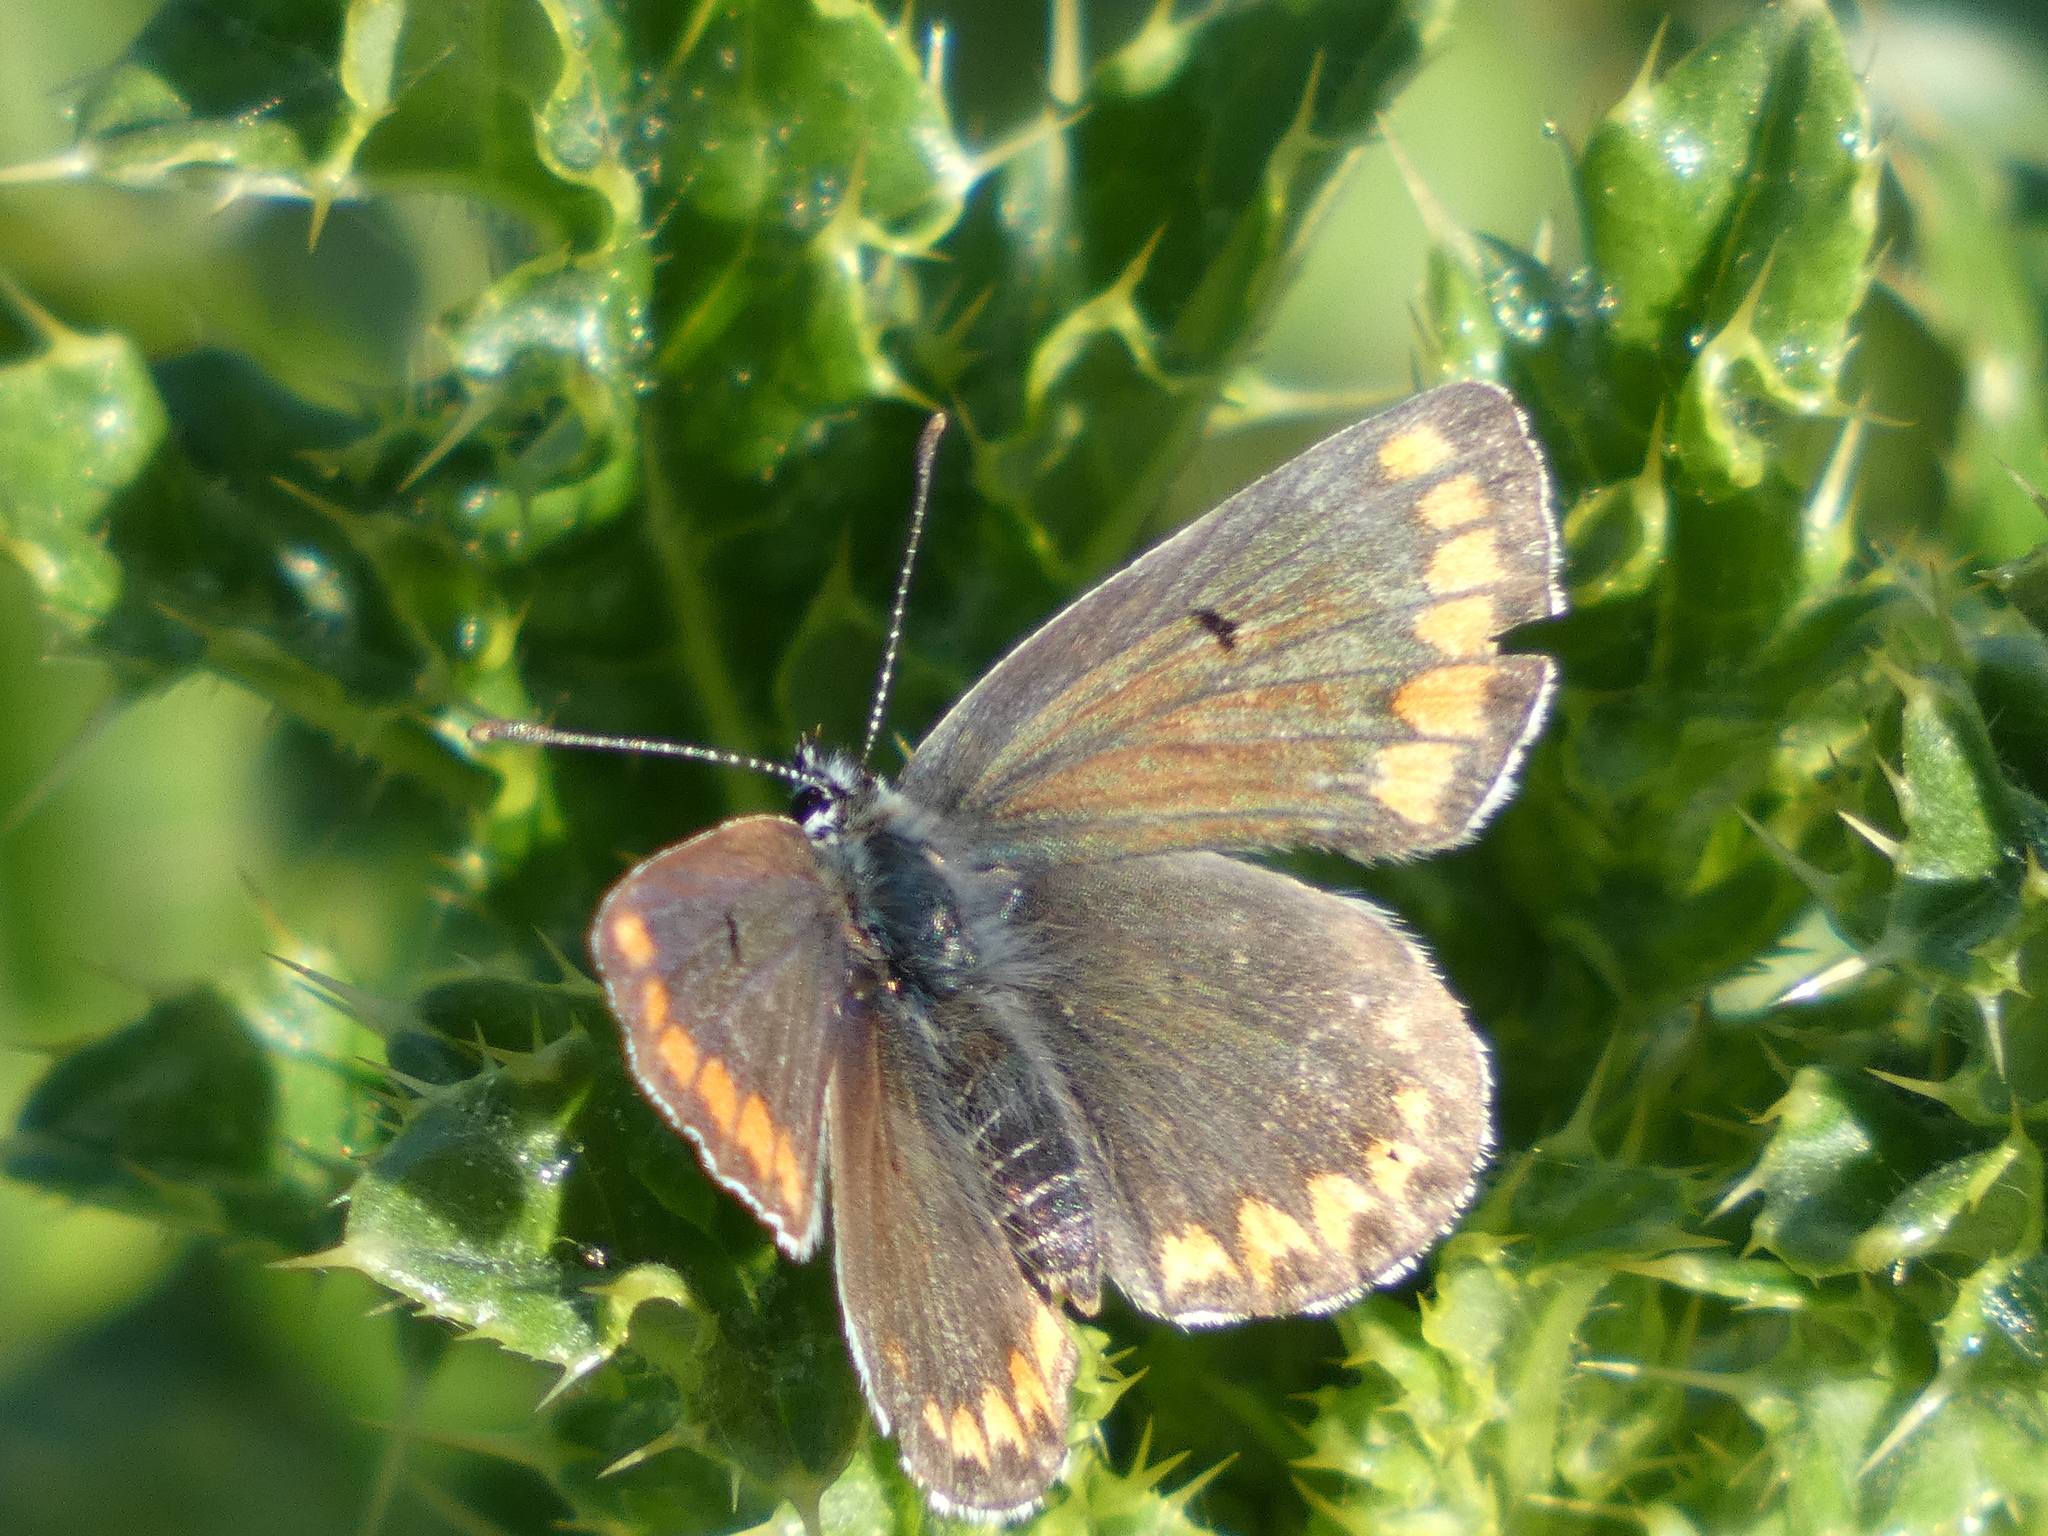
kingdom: Animalia
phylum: Arthropoda
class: Insecta
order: Lepidoptera
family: Lycaenidae
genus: Aricia
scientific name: Aricia agestis
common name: Brown argus
